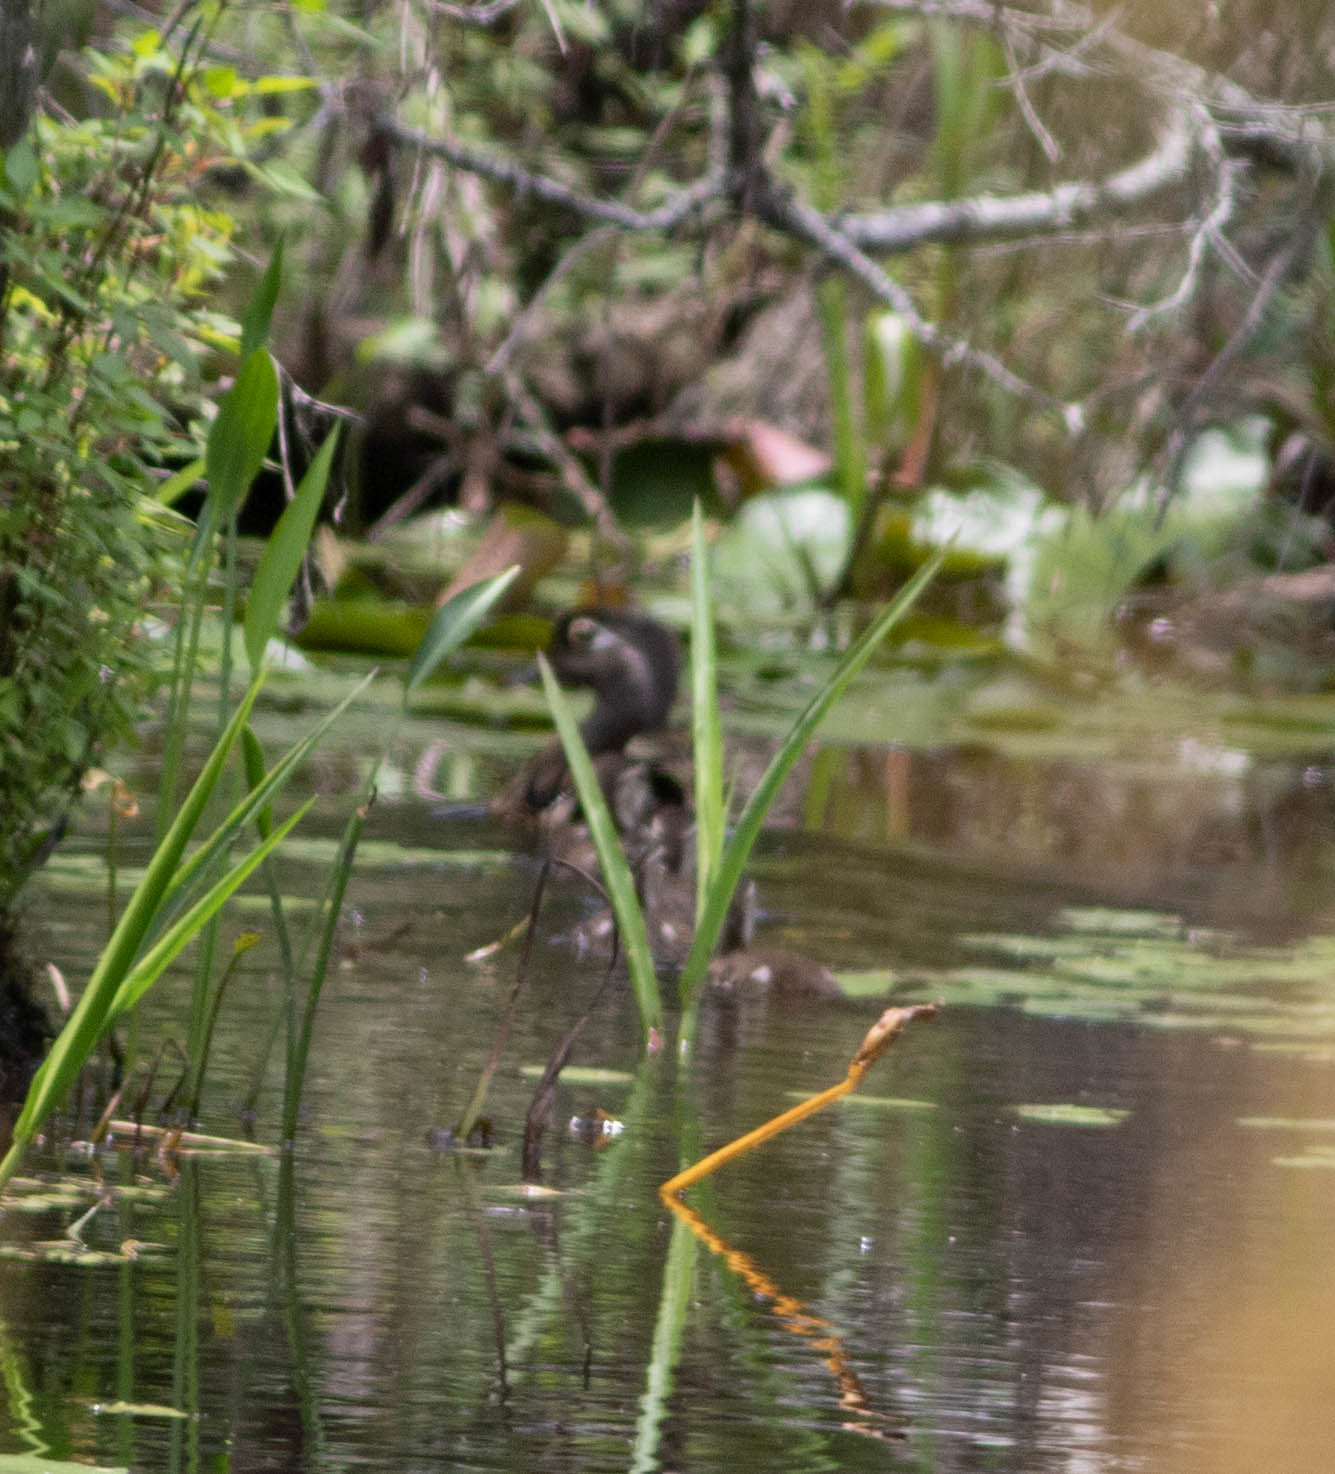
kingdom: Animalia
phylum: Chordata
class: Aves
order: Anseriformes
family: Anatidae
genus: Aix
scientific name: Aix sponsa
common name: Wood duck
